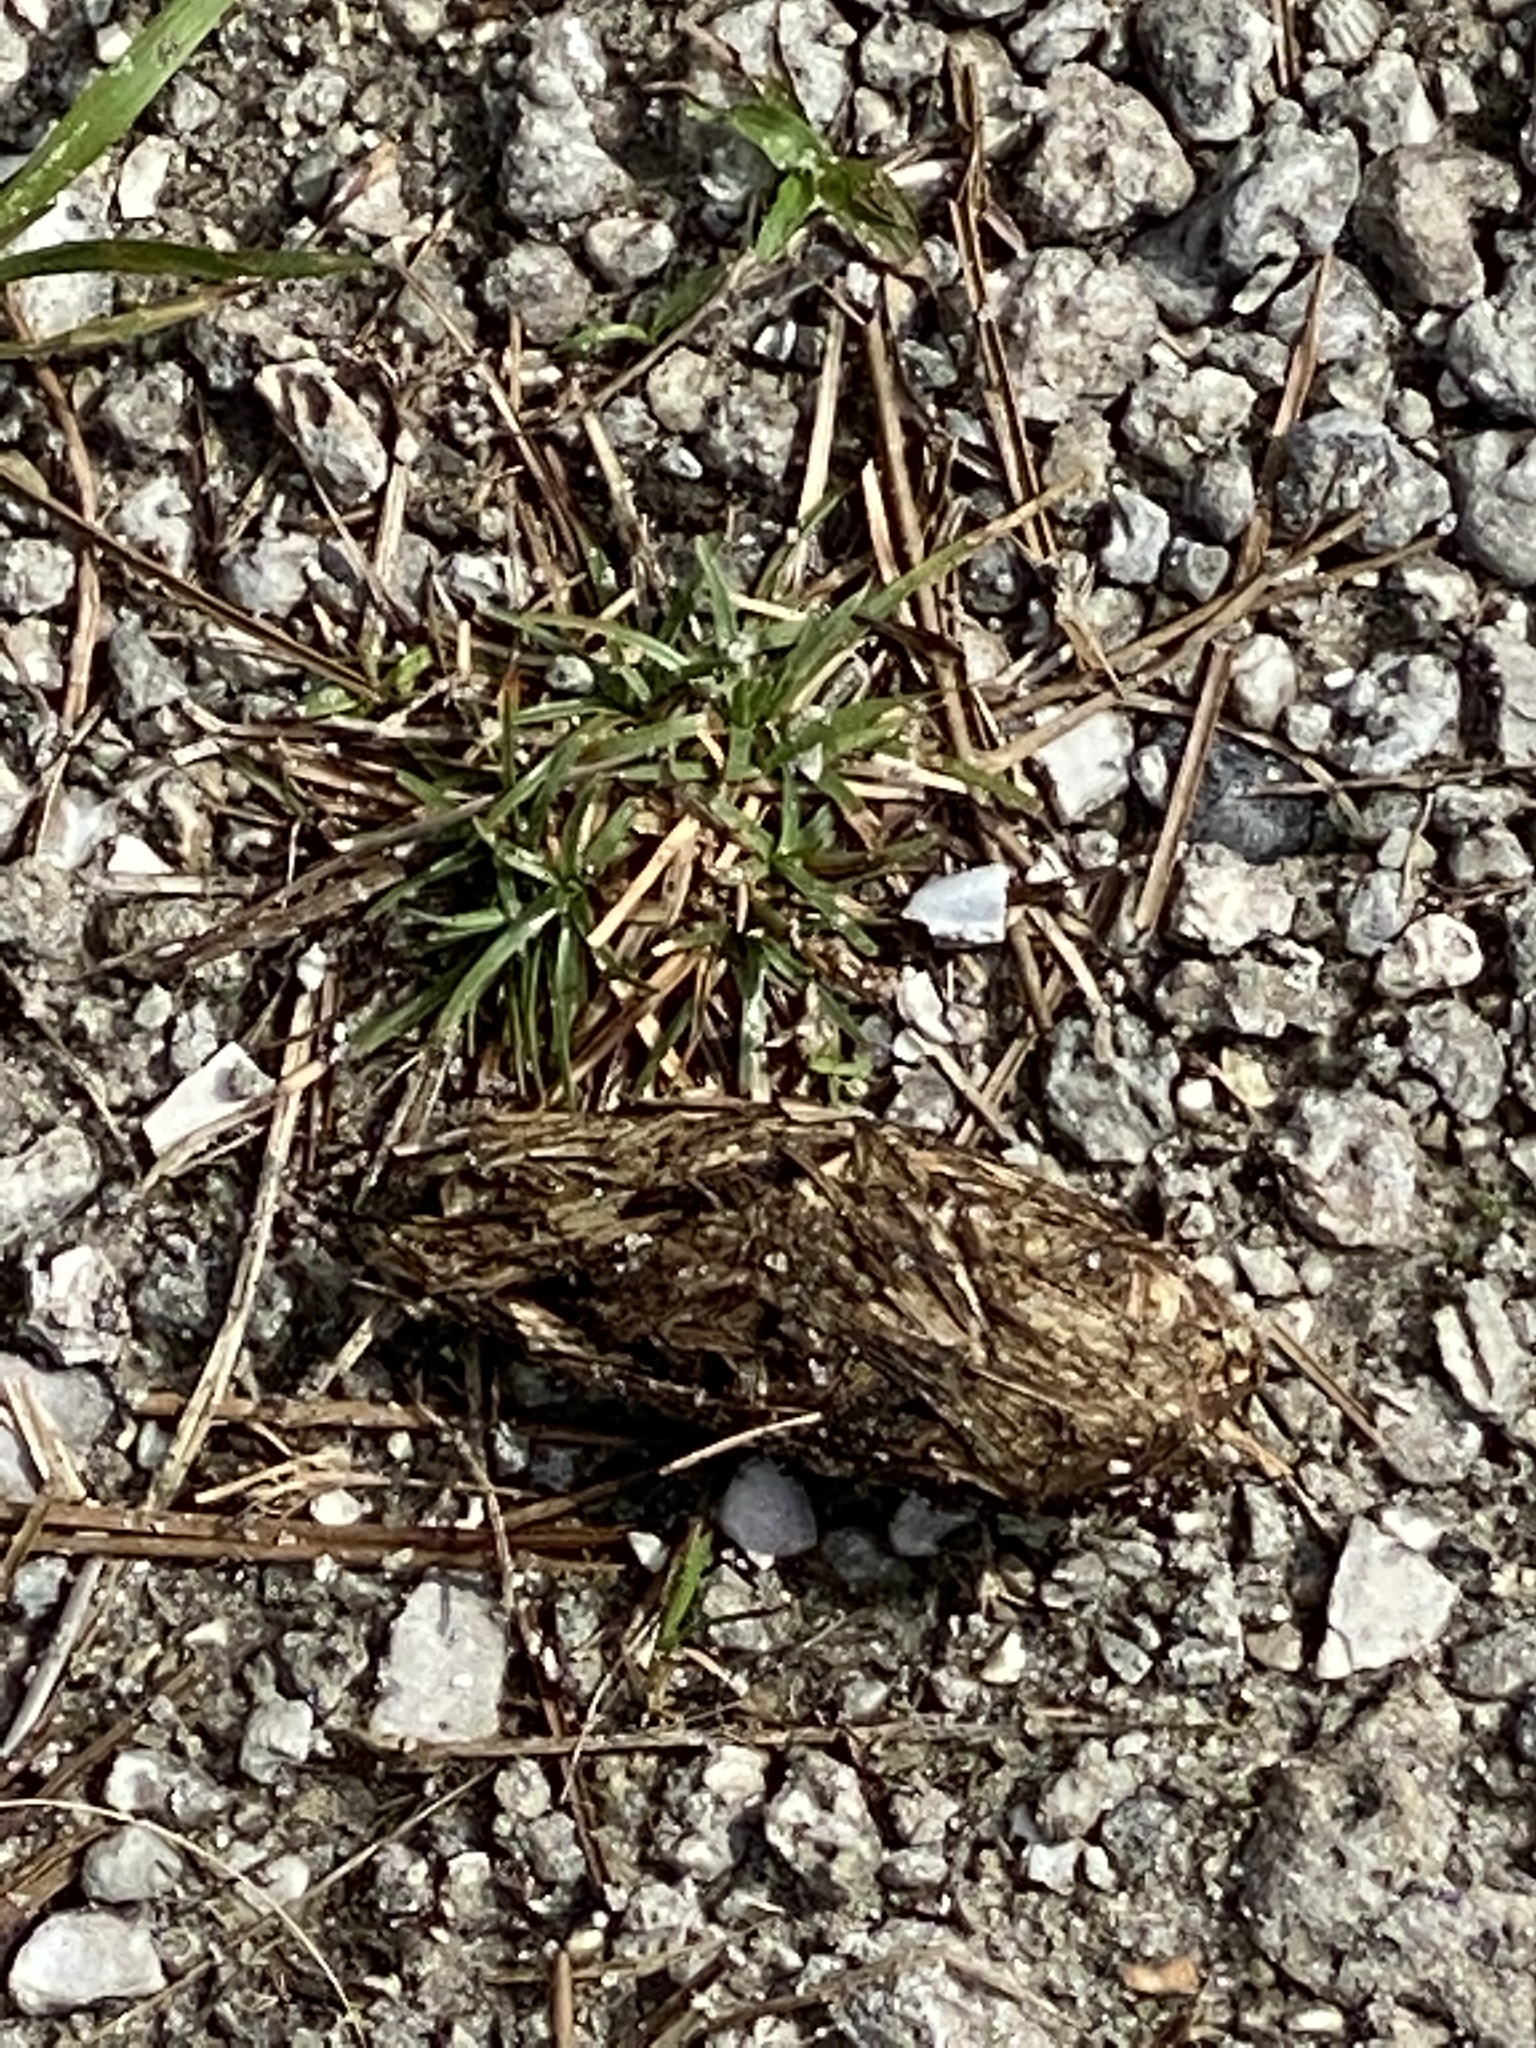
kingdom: Animalia
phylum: Chordata
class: Testudines
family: Testudinidae
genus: Gopherus
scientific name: Gopherus polyphemus
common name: Florida gopher tortoise
